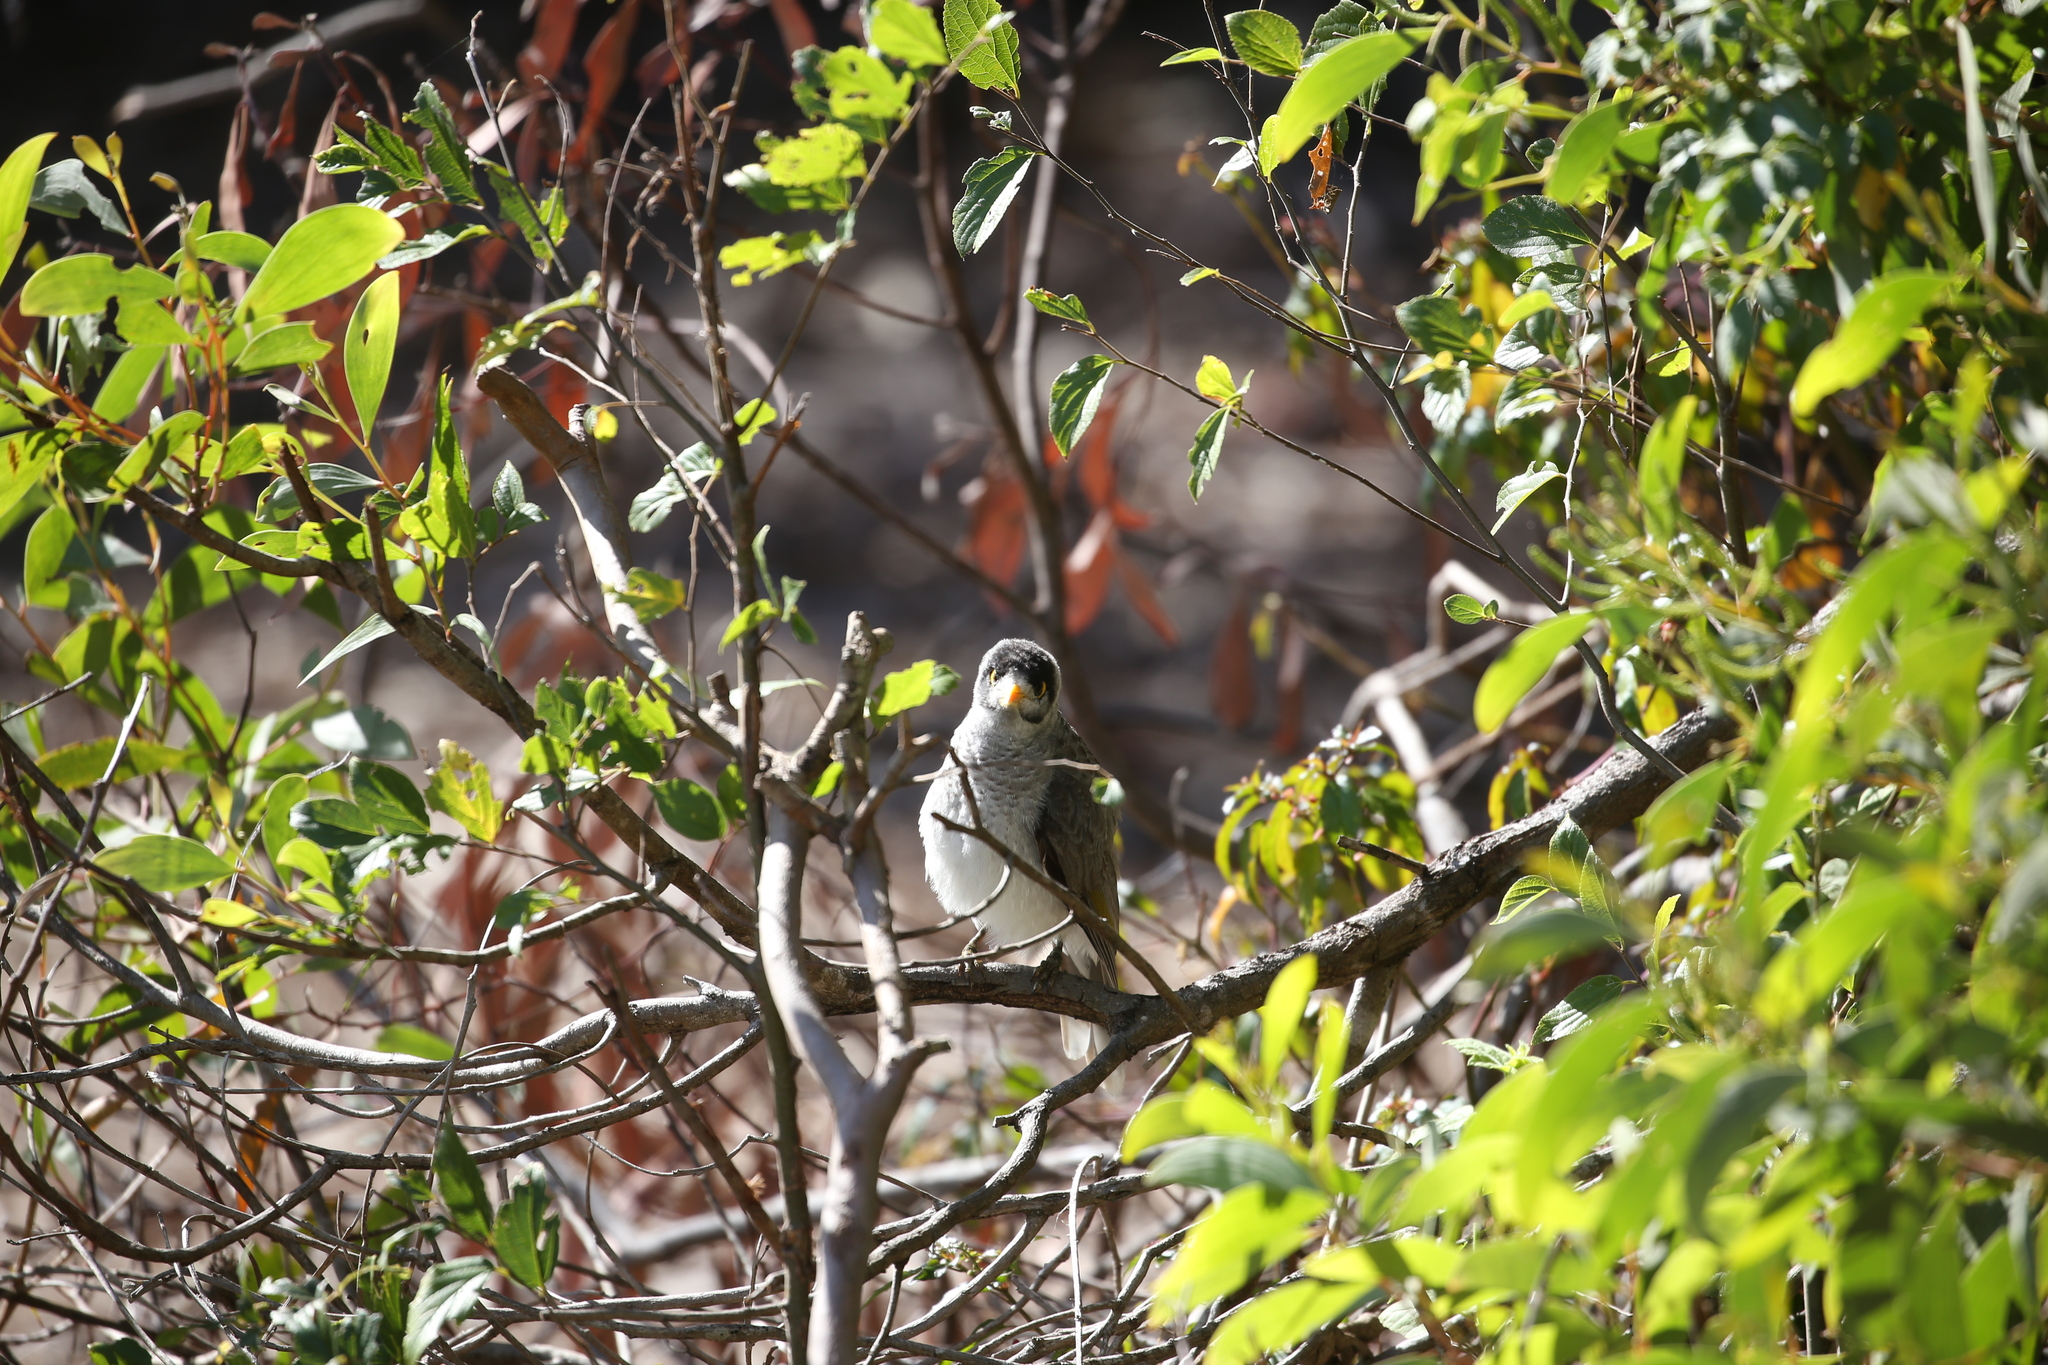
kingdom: Animalia
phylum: Chordata
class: Aves
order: Passeriformes
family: Meliphagidae
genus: Manorina
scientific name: Manorina melanocephala
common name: Noisy miner
